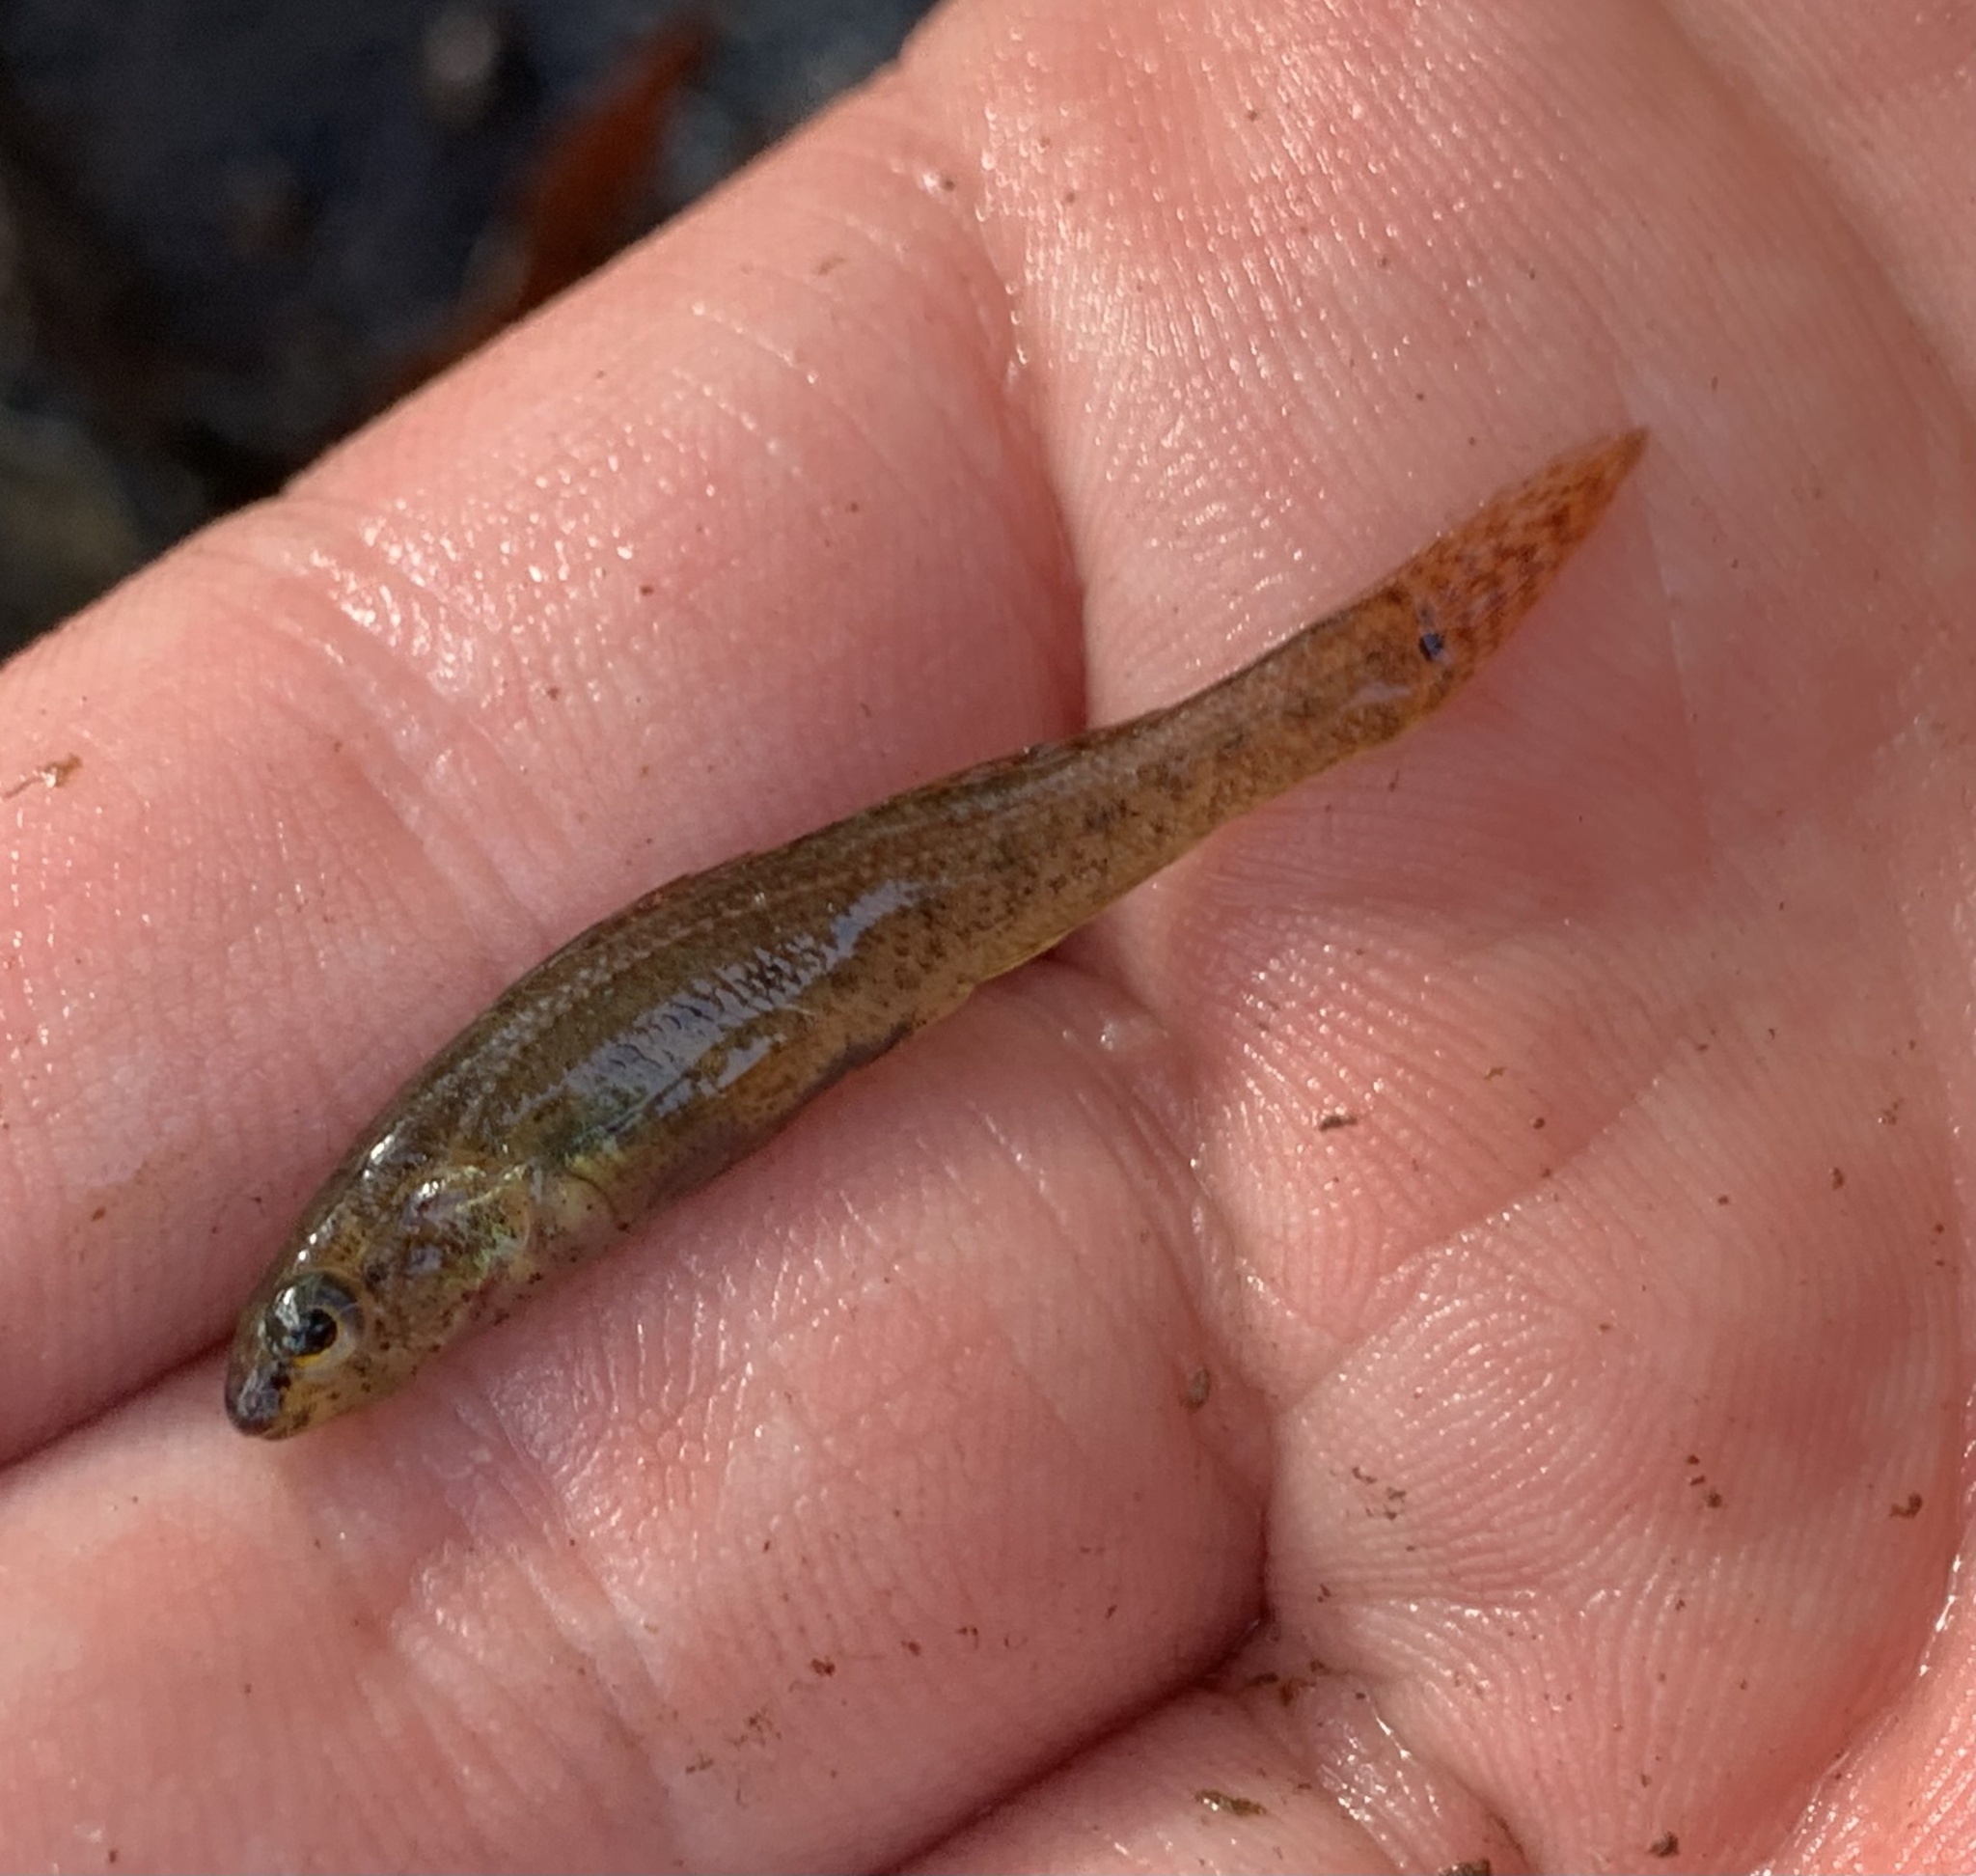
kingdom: Animalia
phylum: Chordata
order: Perciformes
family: Percidae
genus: Etheostoma
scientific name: Etheostoma serrifer
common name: Sawcheek darter
